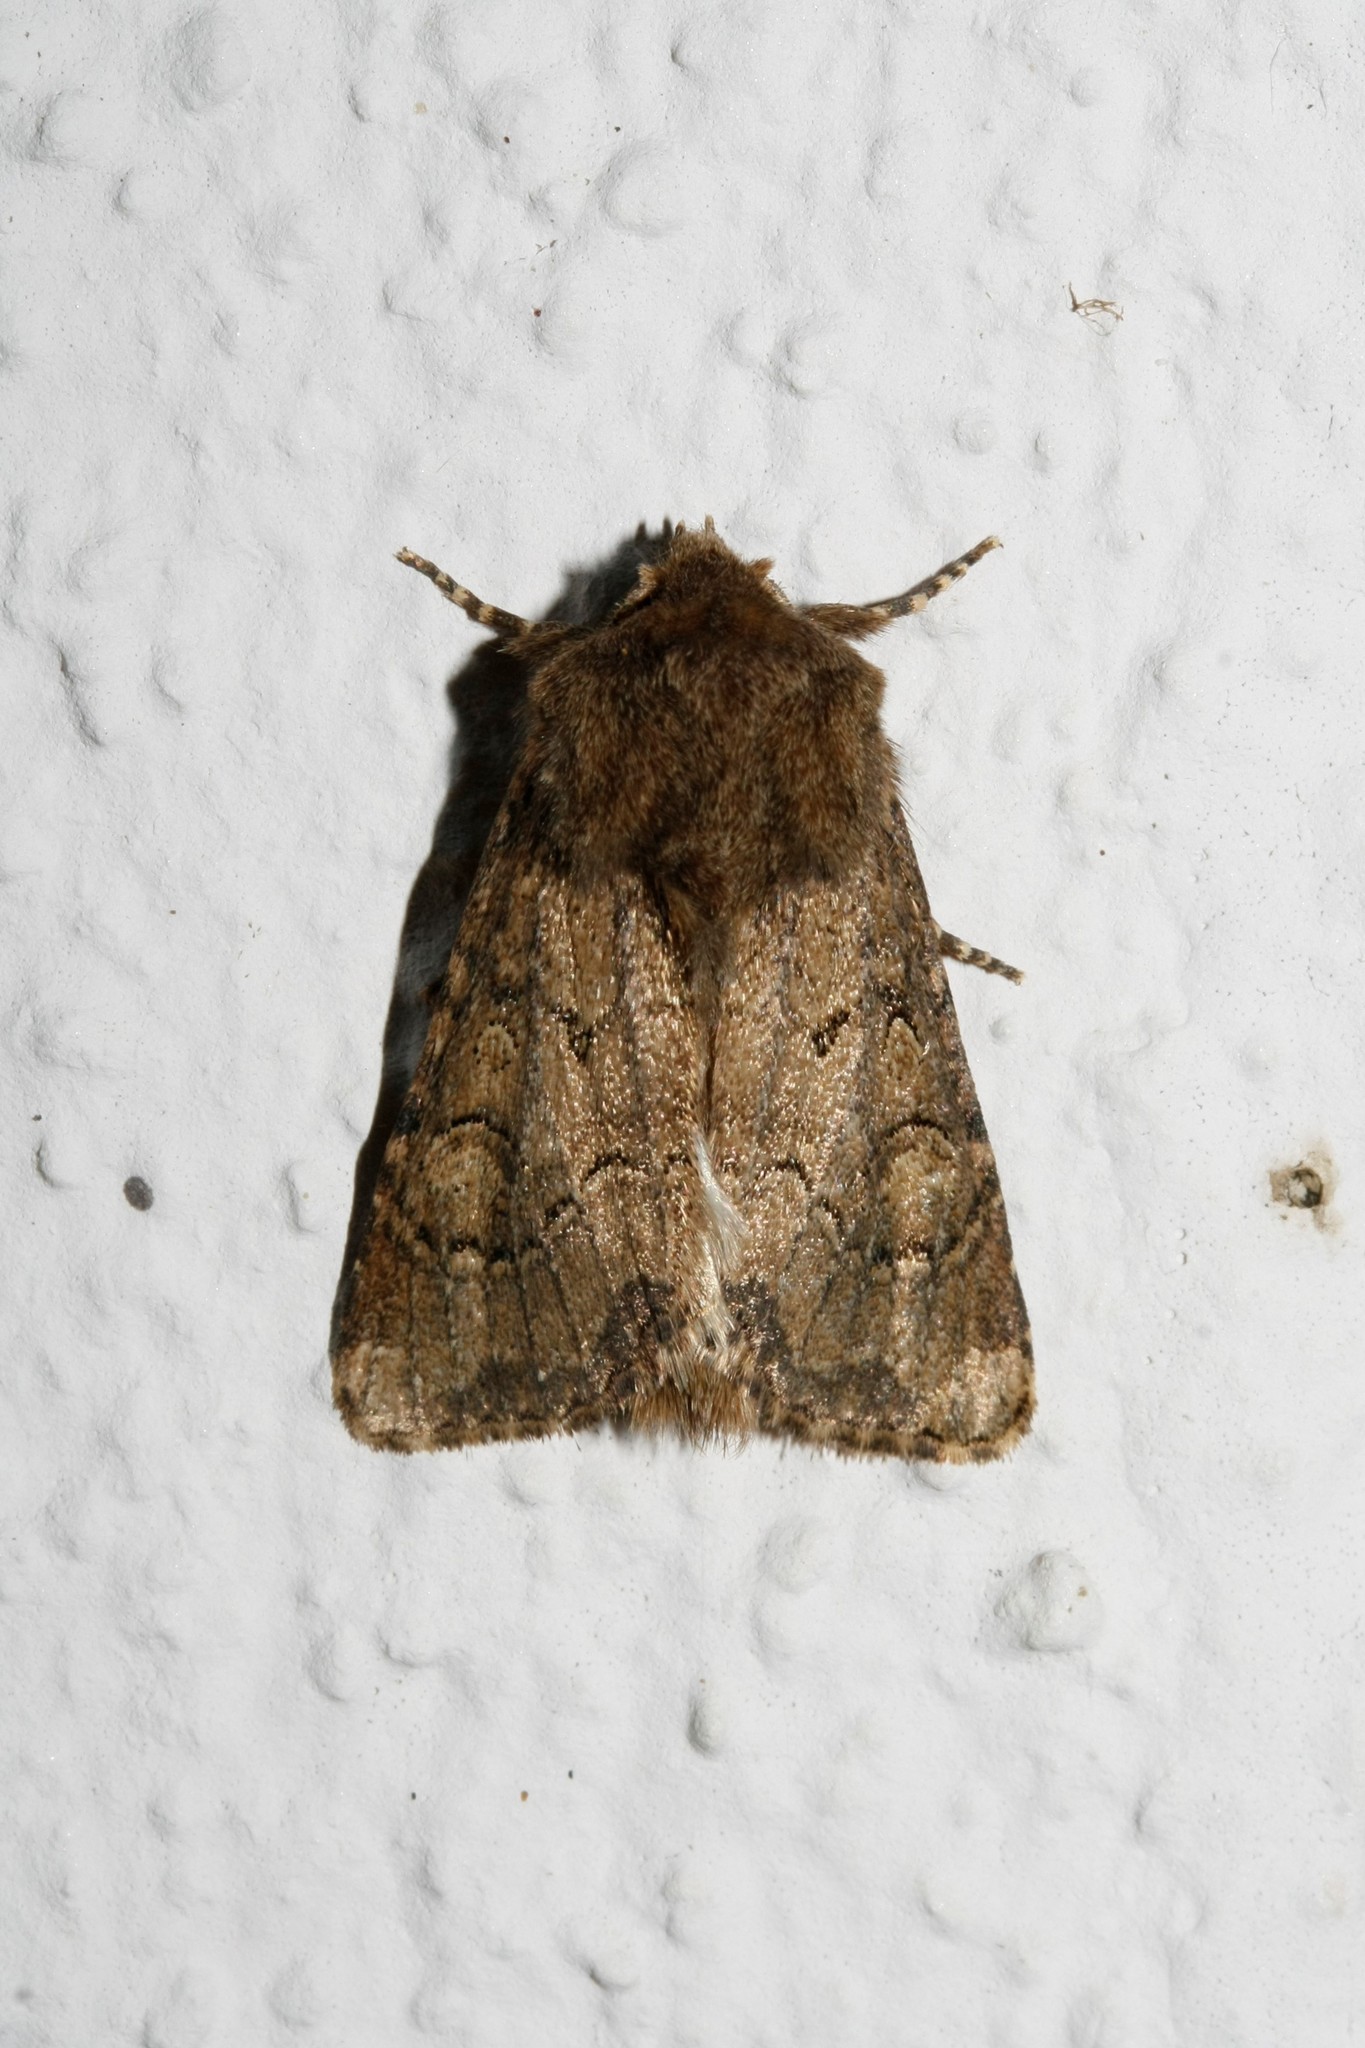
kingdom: Animalia
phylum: Arthropoda
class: Insecta
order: Lepidoptera
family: Noctuidae
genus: Luperina
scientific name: Luperina testacea
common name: Flounced rustic
